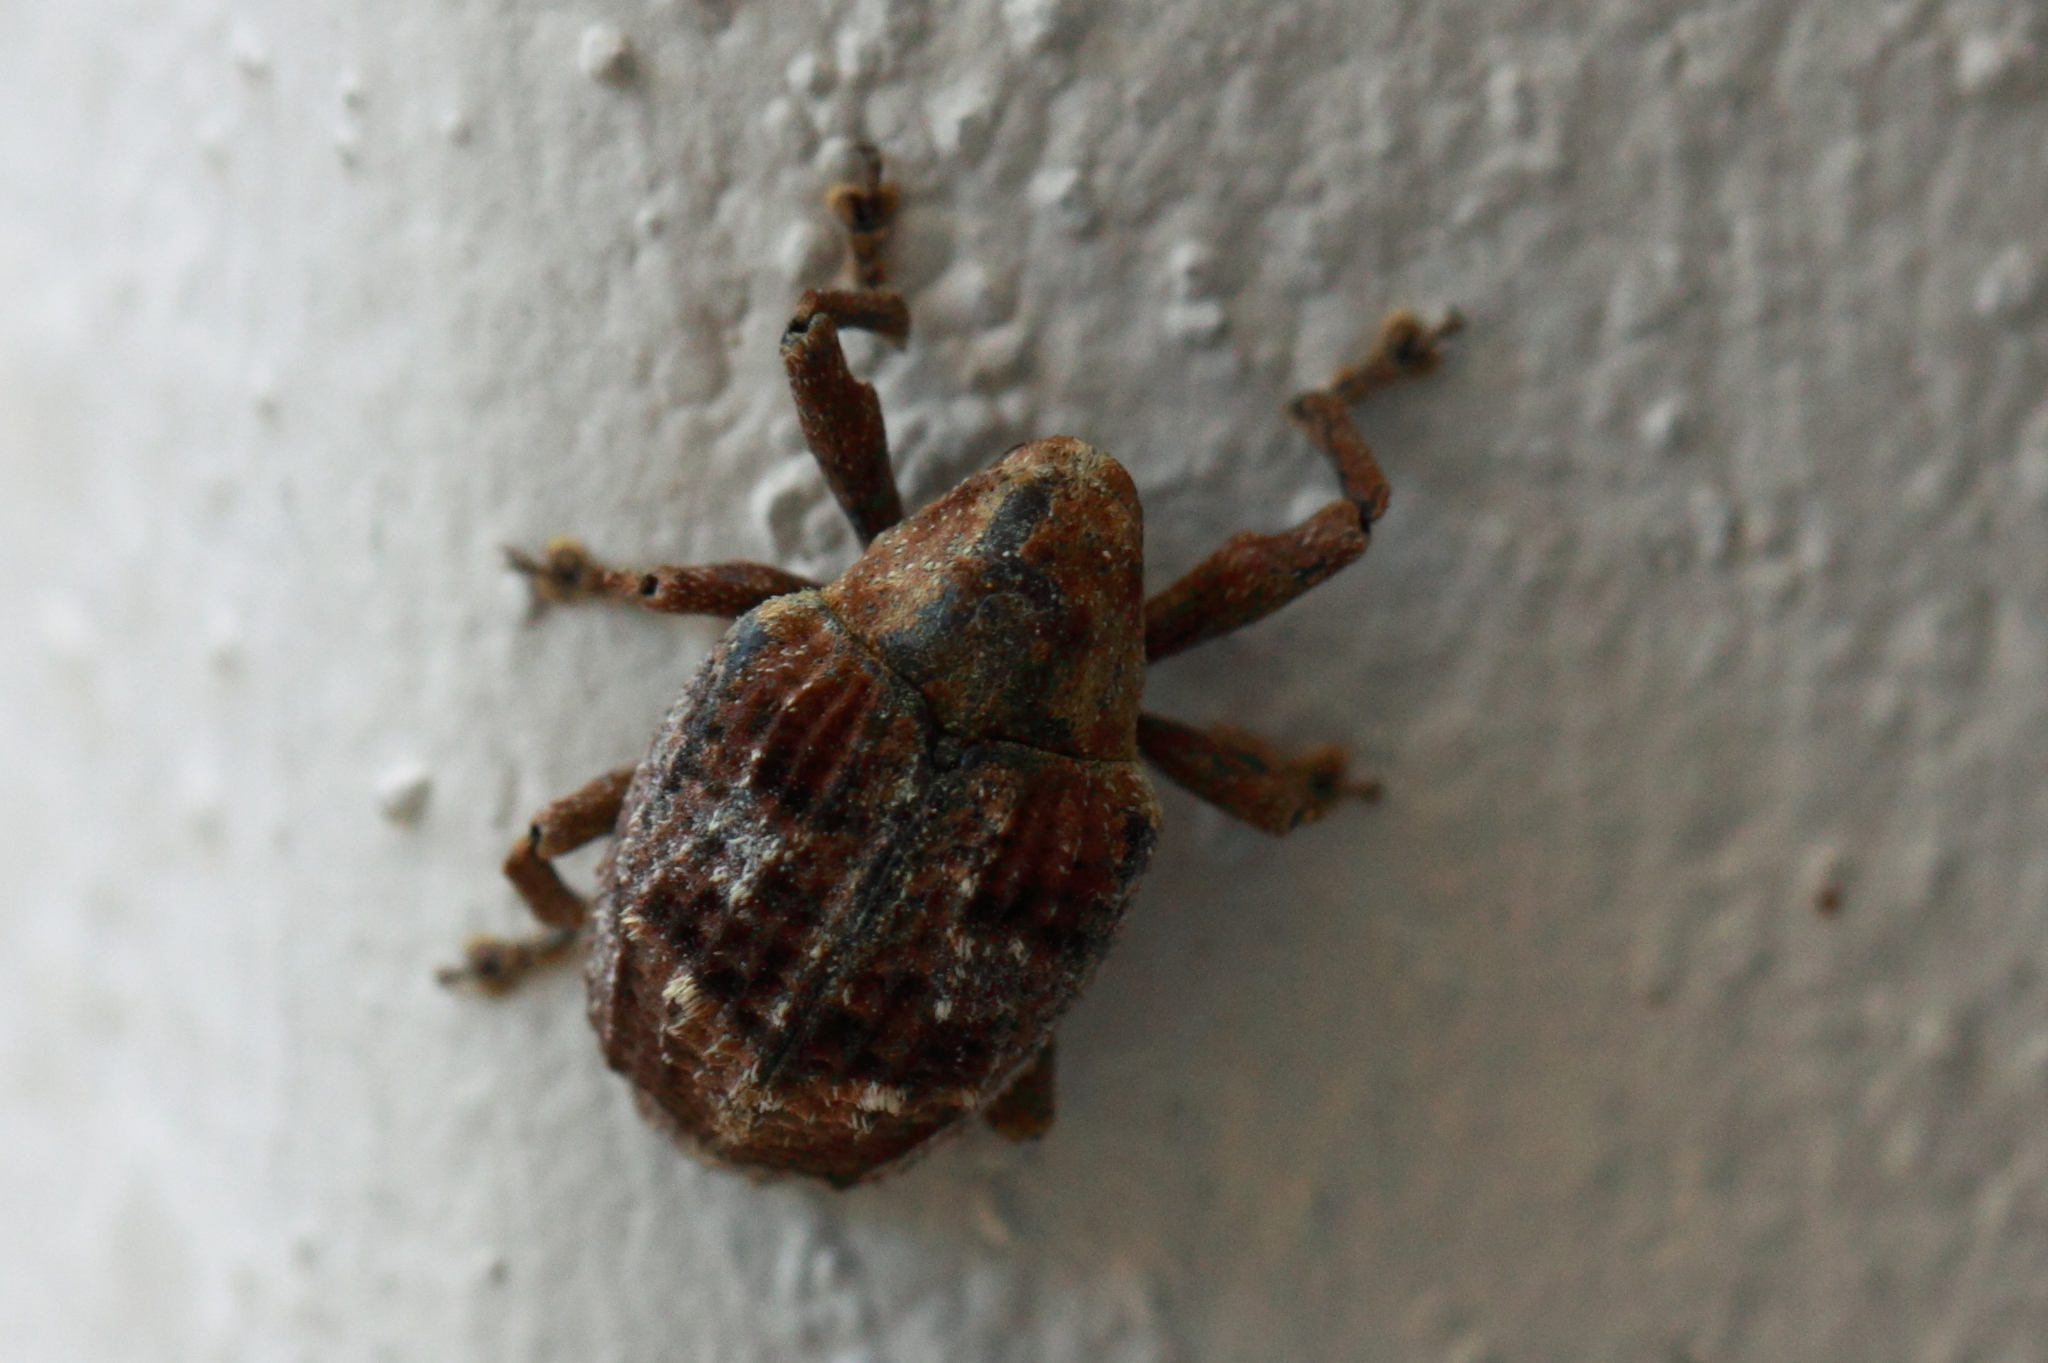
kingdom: Animalia
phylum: Arthropoda
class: Insecta
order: Coleoptera
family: Curculionidae
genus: Tepperia
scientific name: Tepperia major
